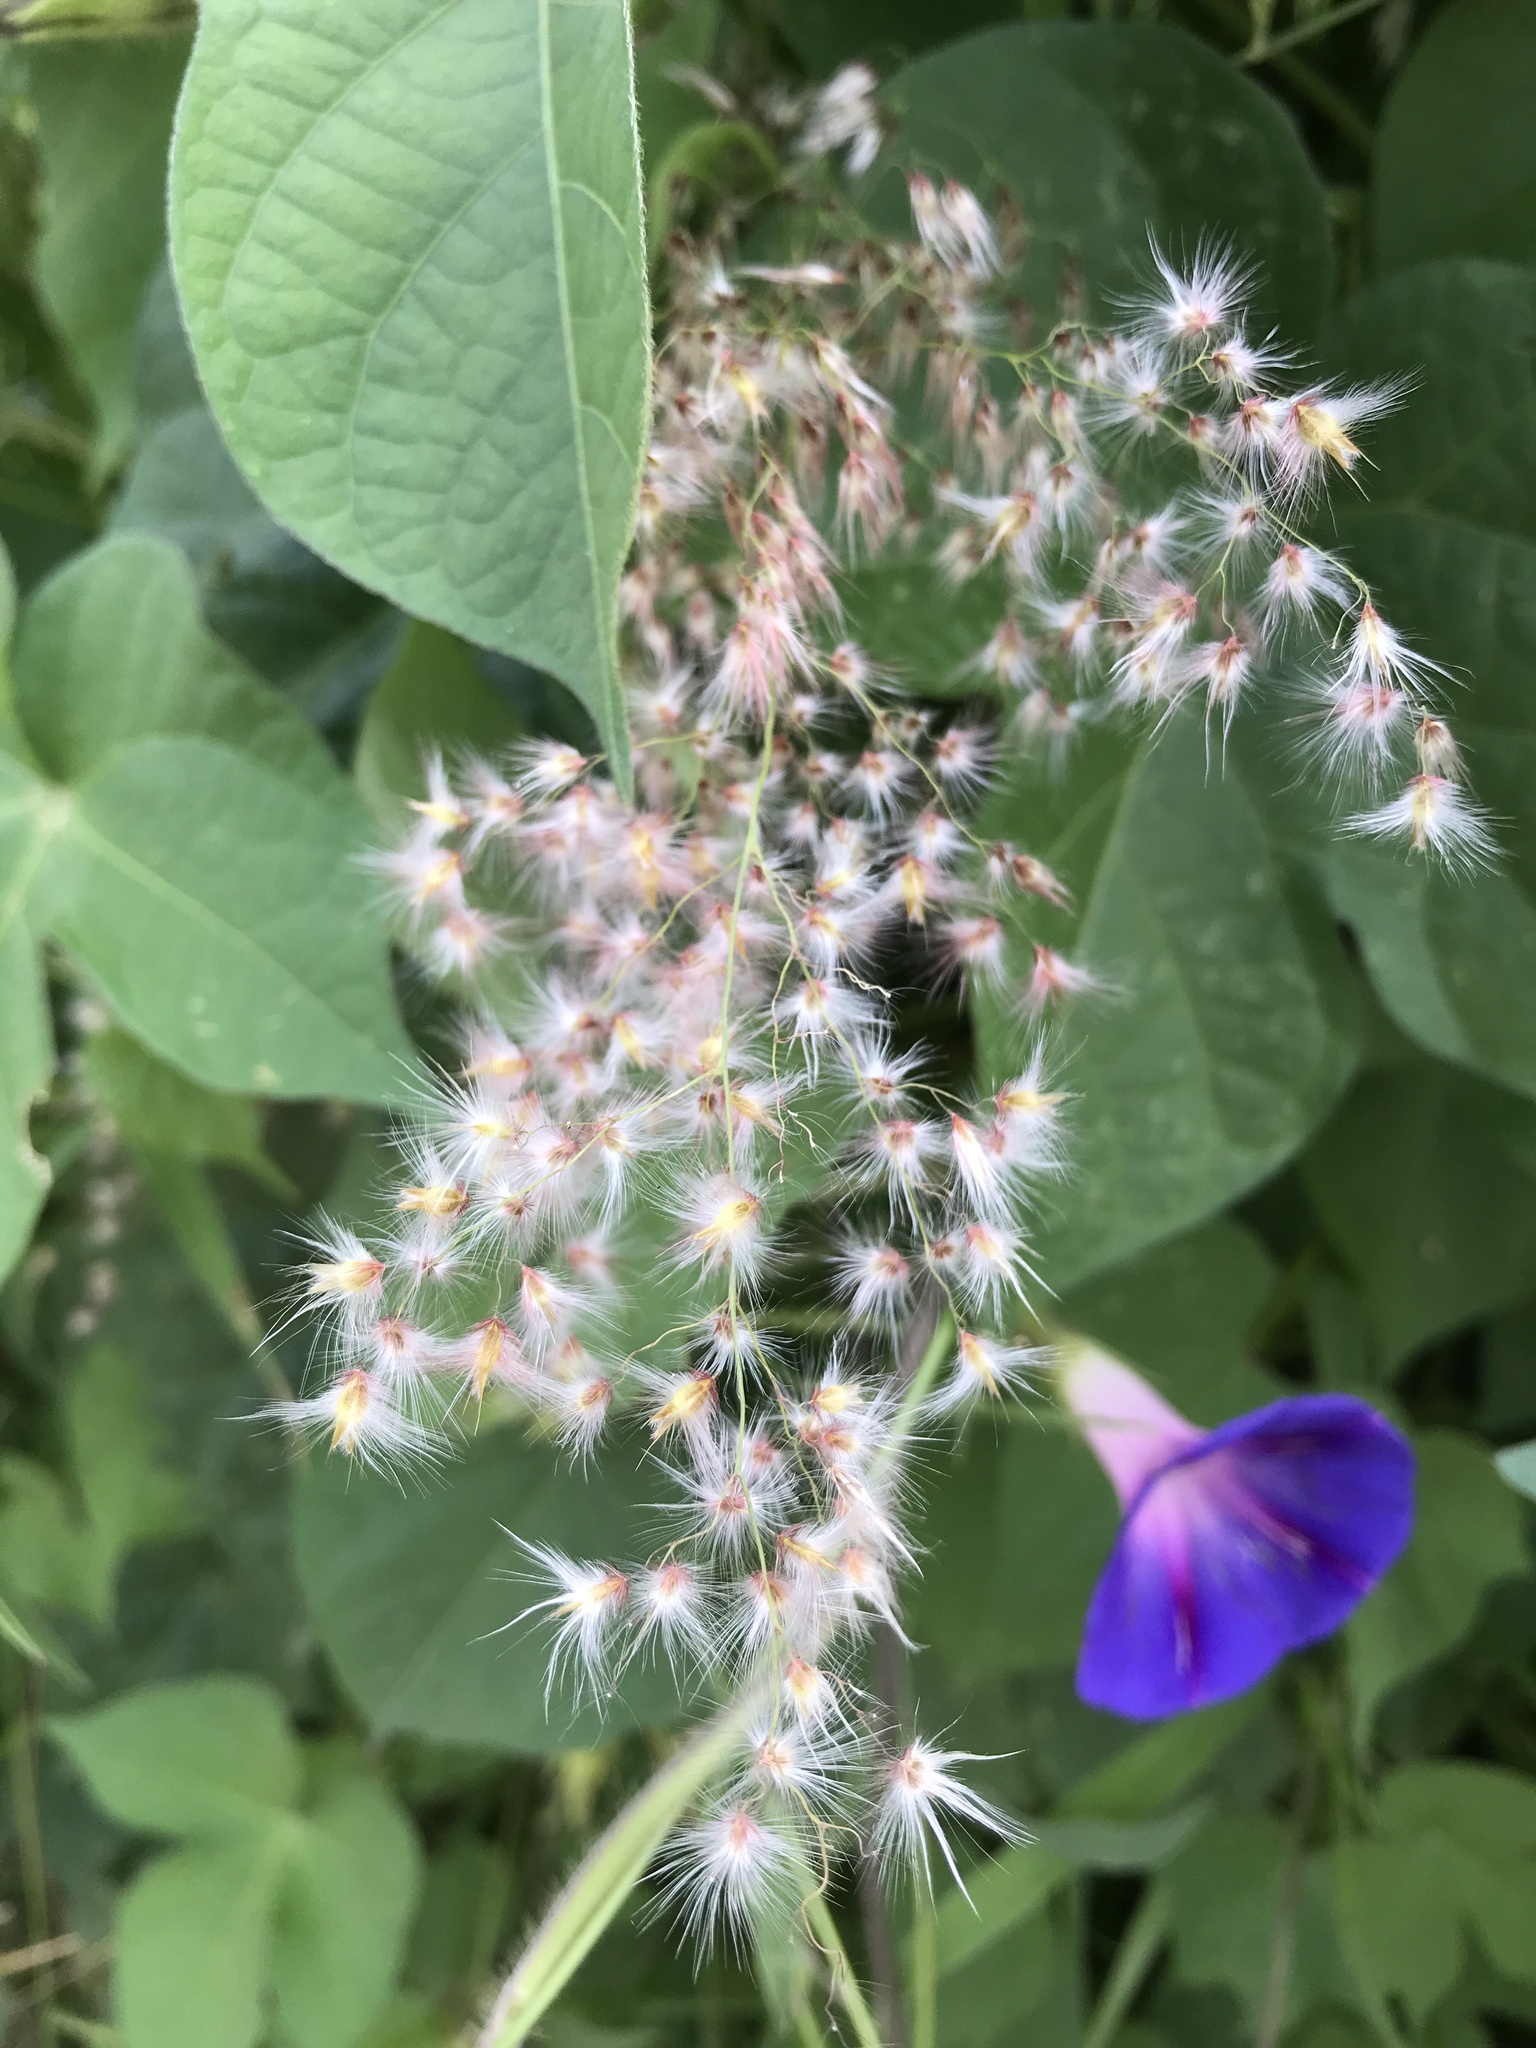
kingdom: Plantae
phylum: Tracheophyta
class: Liliopsida
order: Poales
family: Poaceae
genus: Melinis
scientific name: Melinis repens
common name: Rose natal grass
